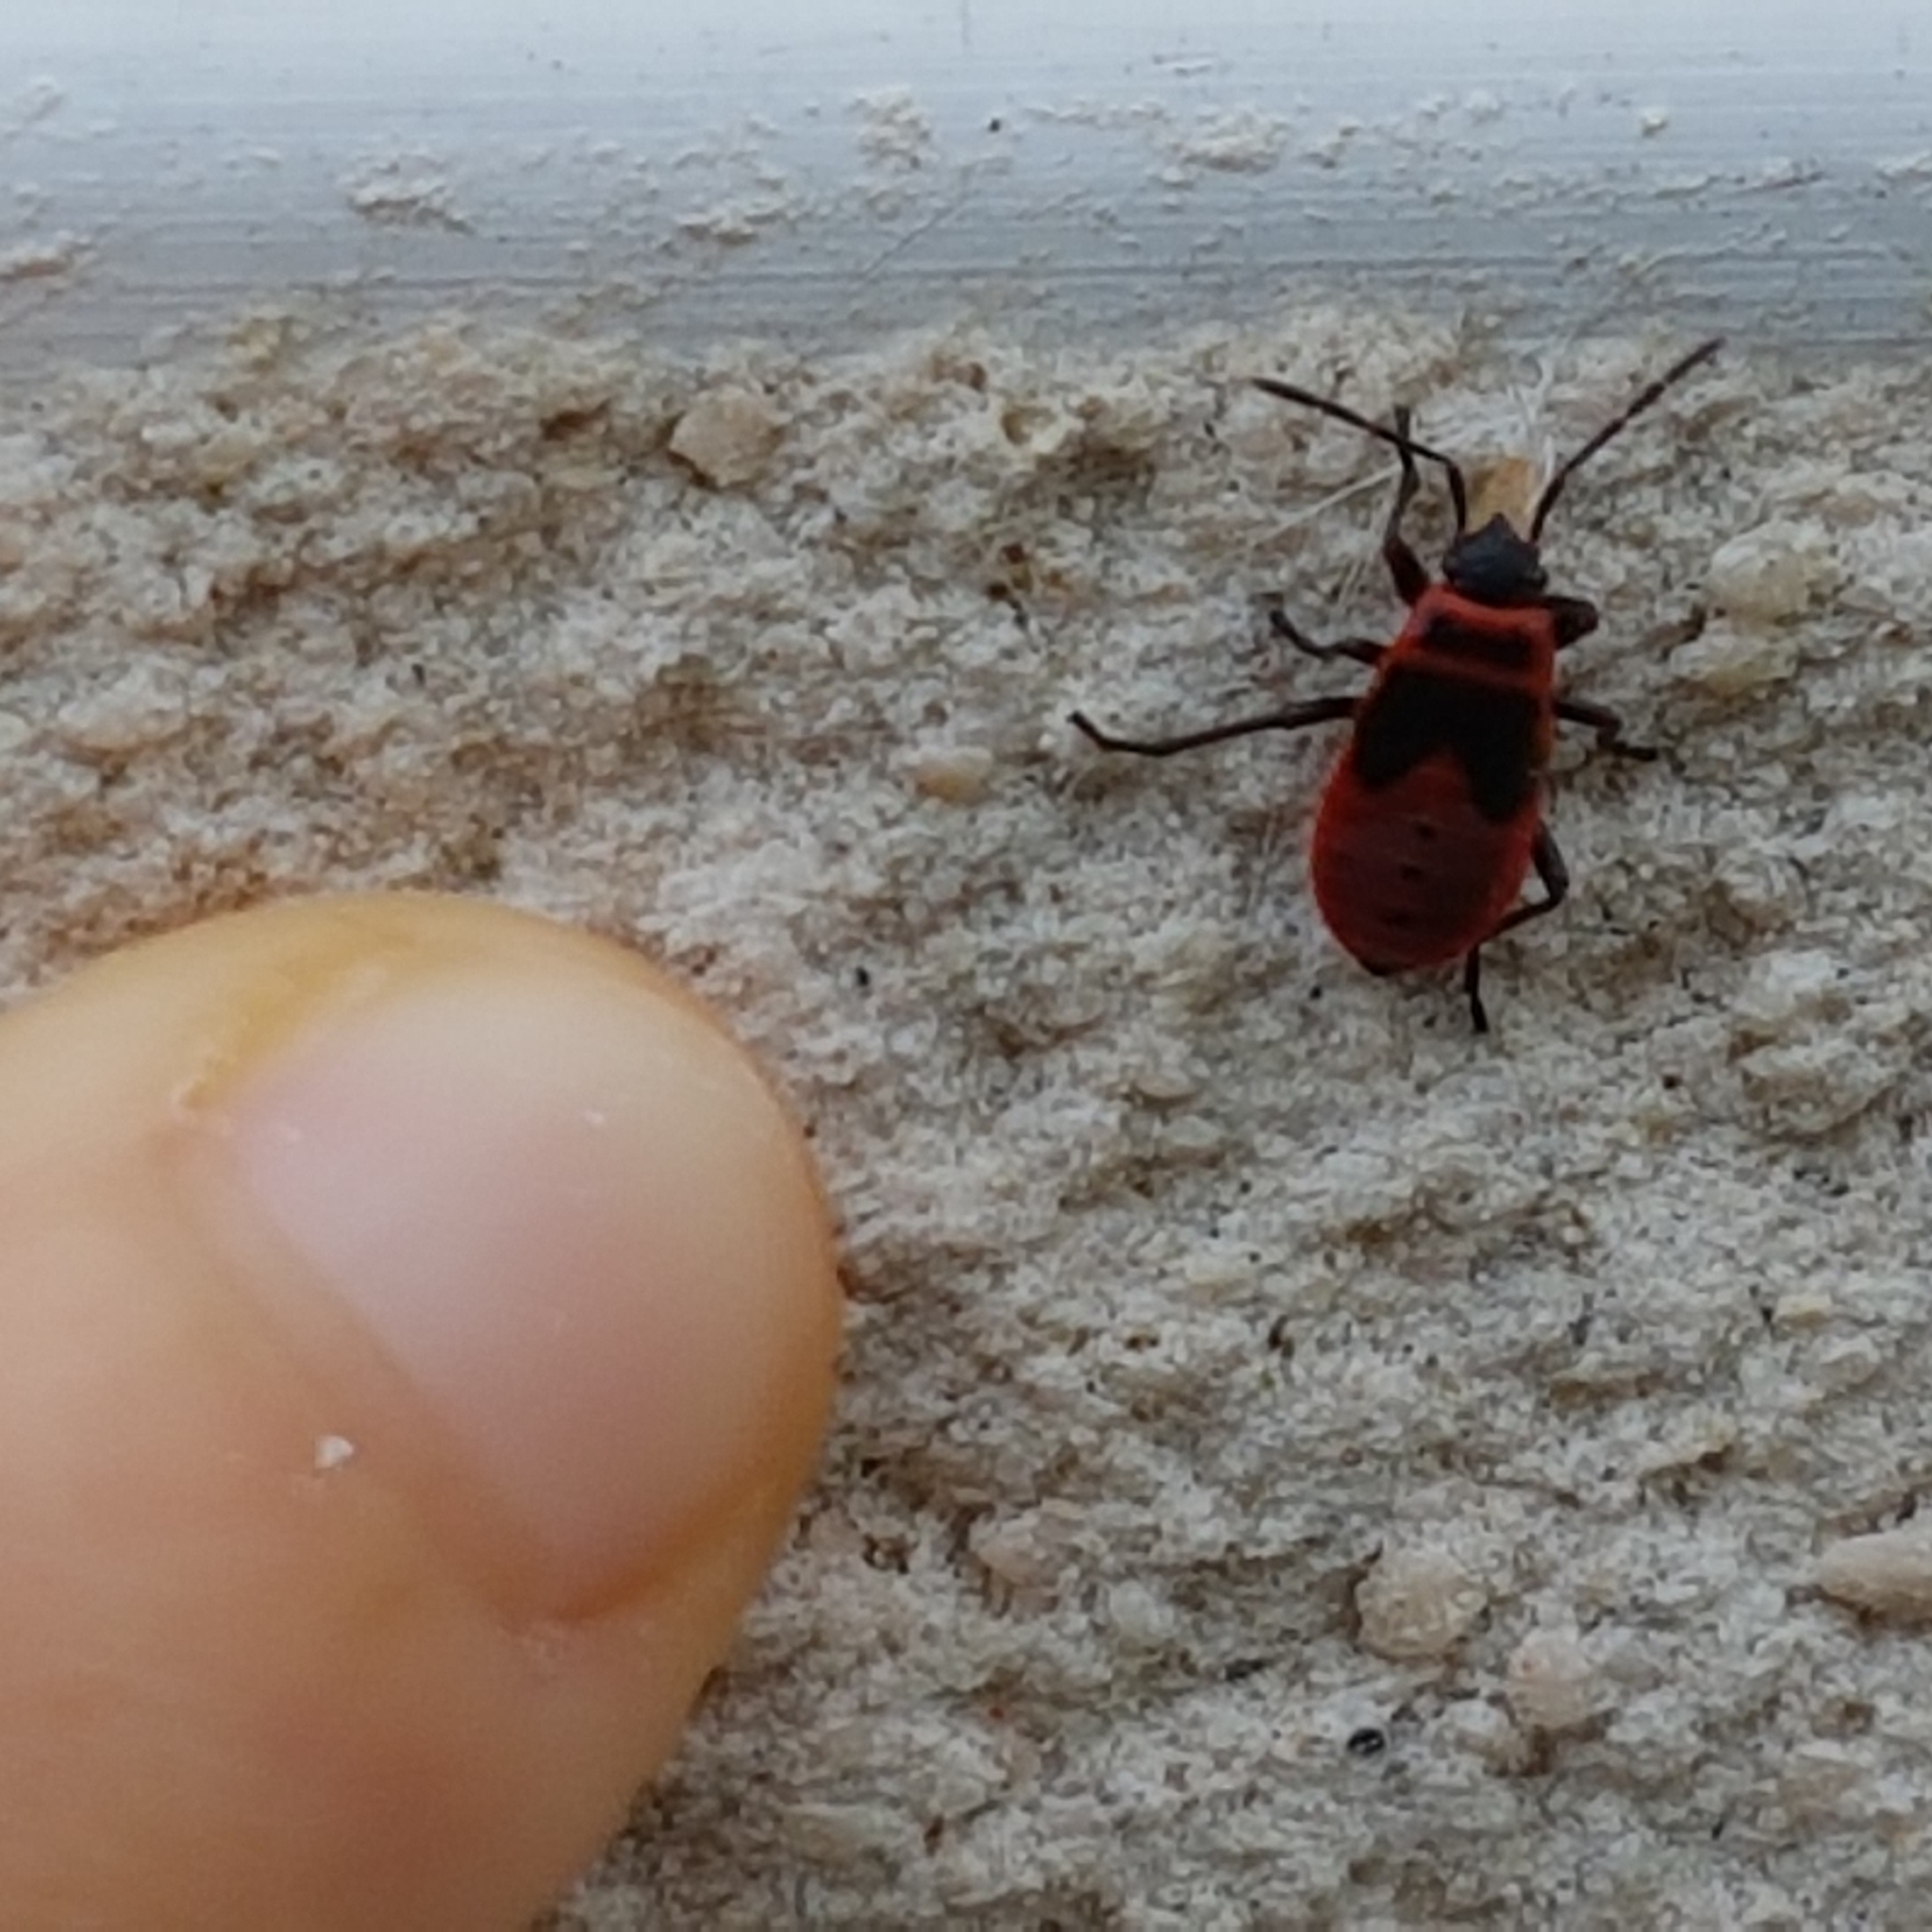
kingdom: Animalia
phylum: Arthropoda
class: Insecta
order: Hemiptera
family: Pyrrhocoridae
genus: Pyrrhocoris
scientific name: Pyrrhocoris apterus
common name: Firebug
